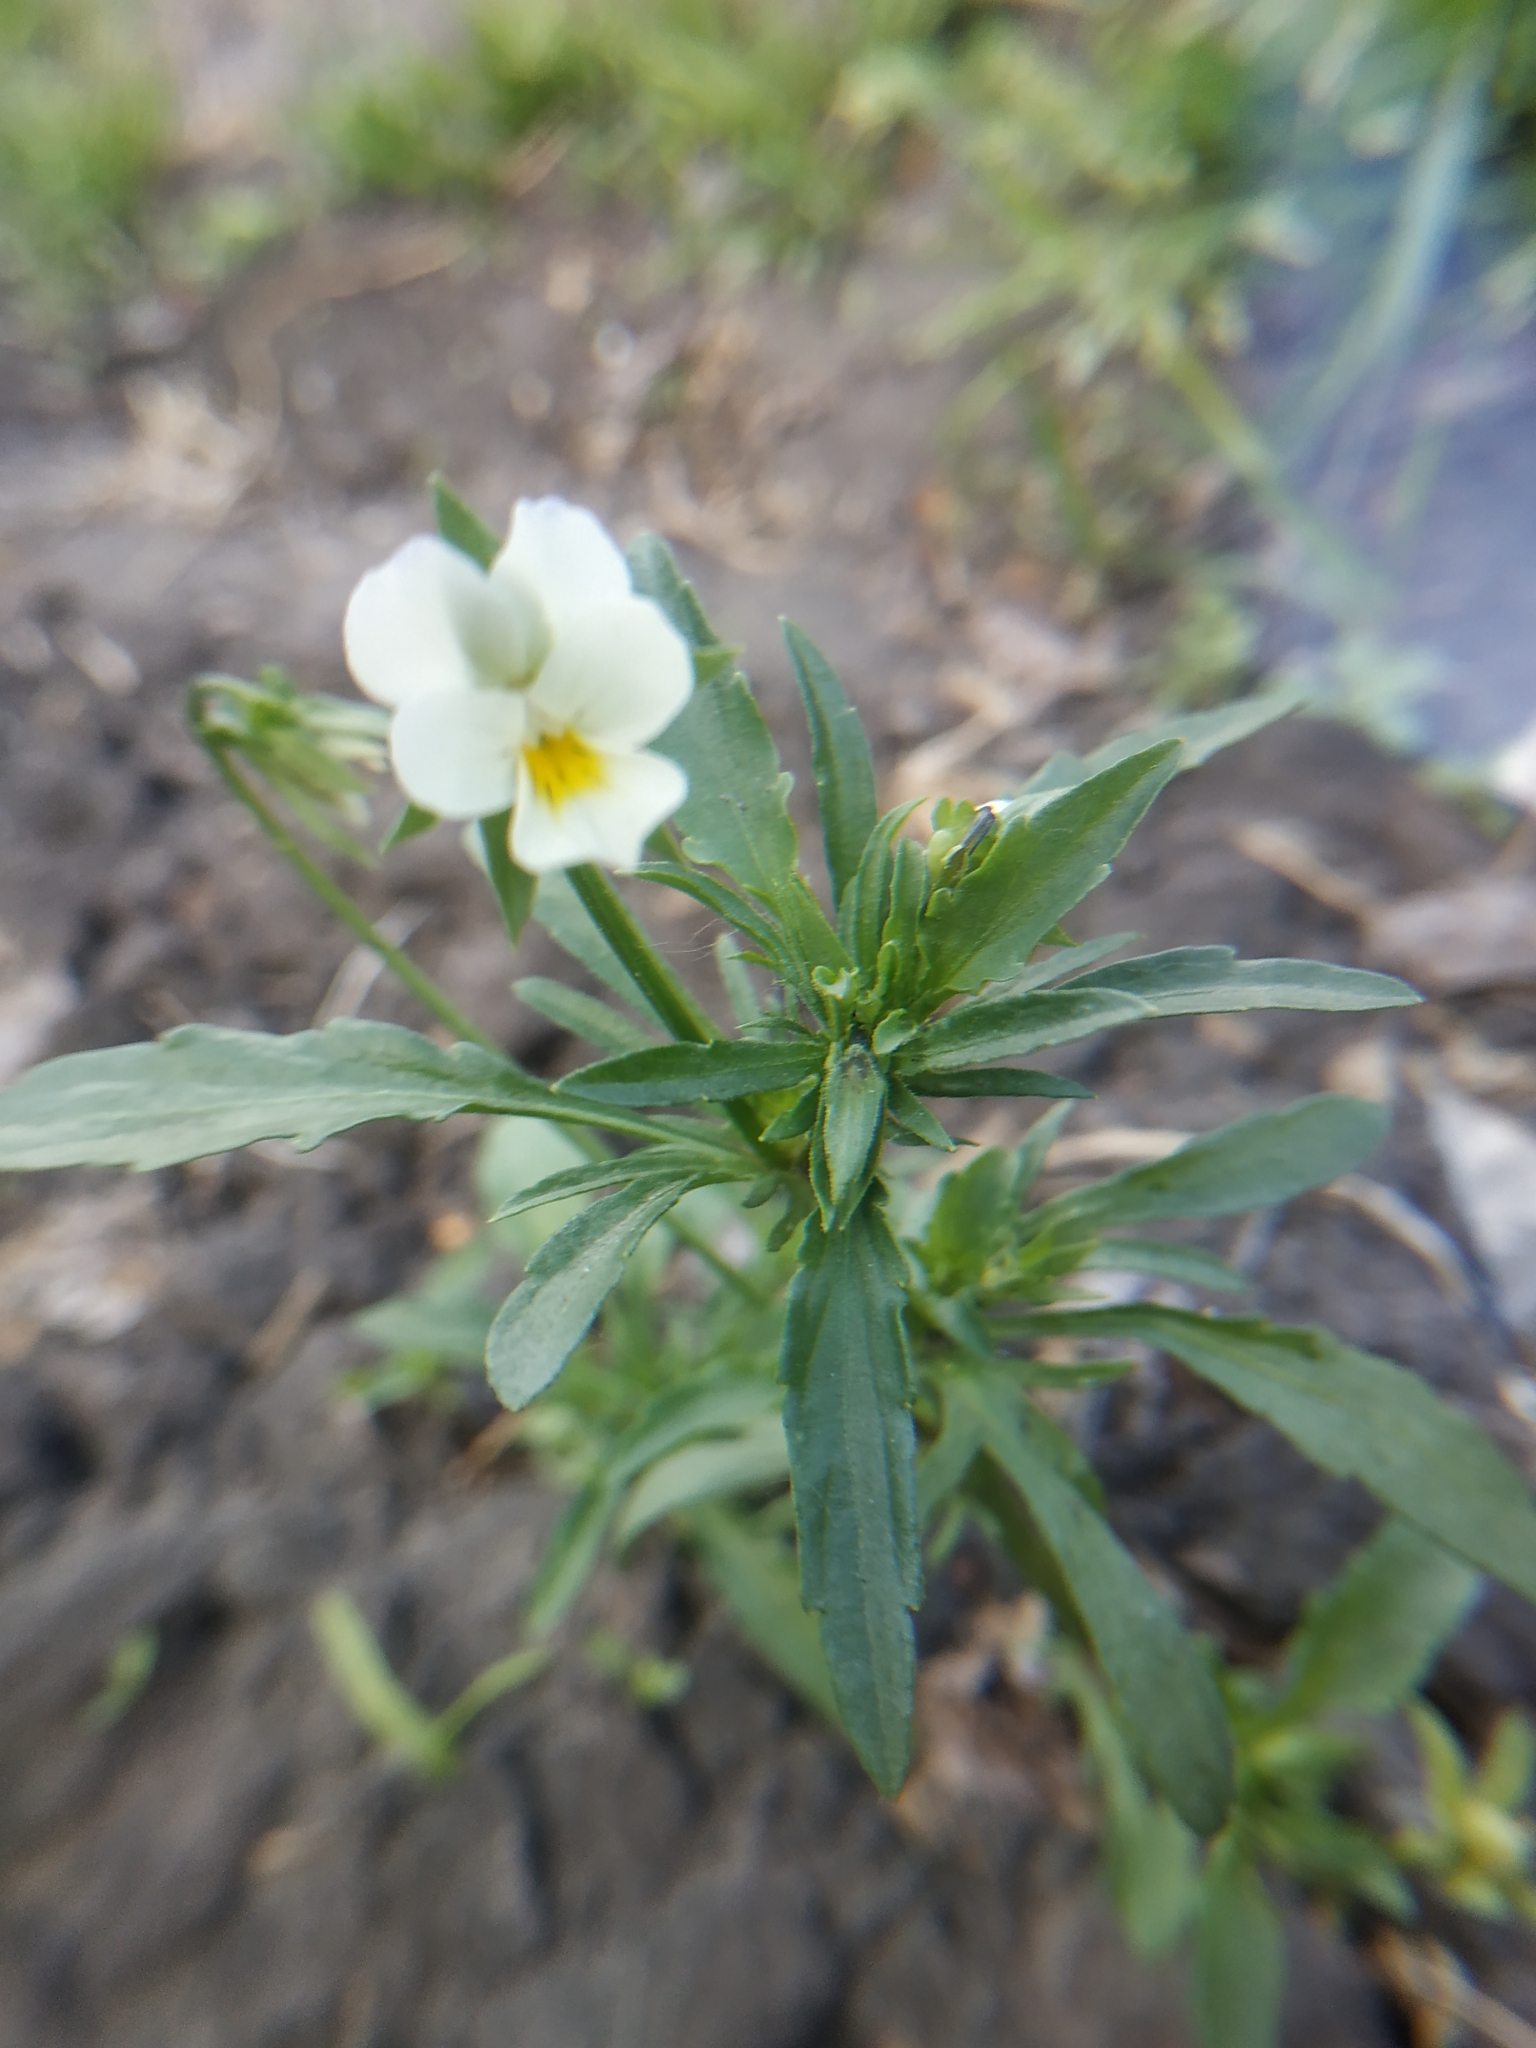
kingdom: Plantae
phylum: Tracheophyta
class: Magnoliopsida
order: Malpighiales
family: Violaceae
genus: Viola
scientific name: Viola arvensis
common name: Field pansy
